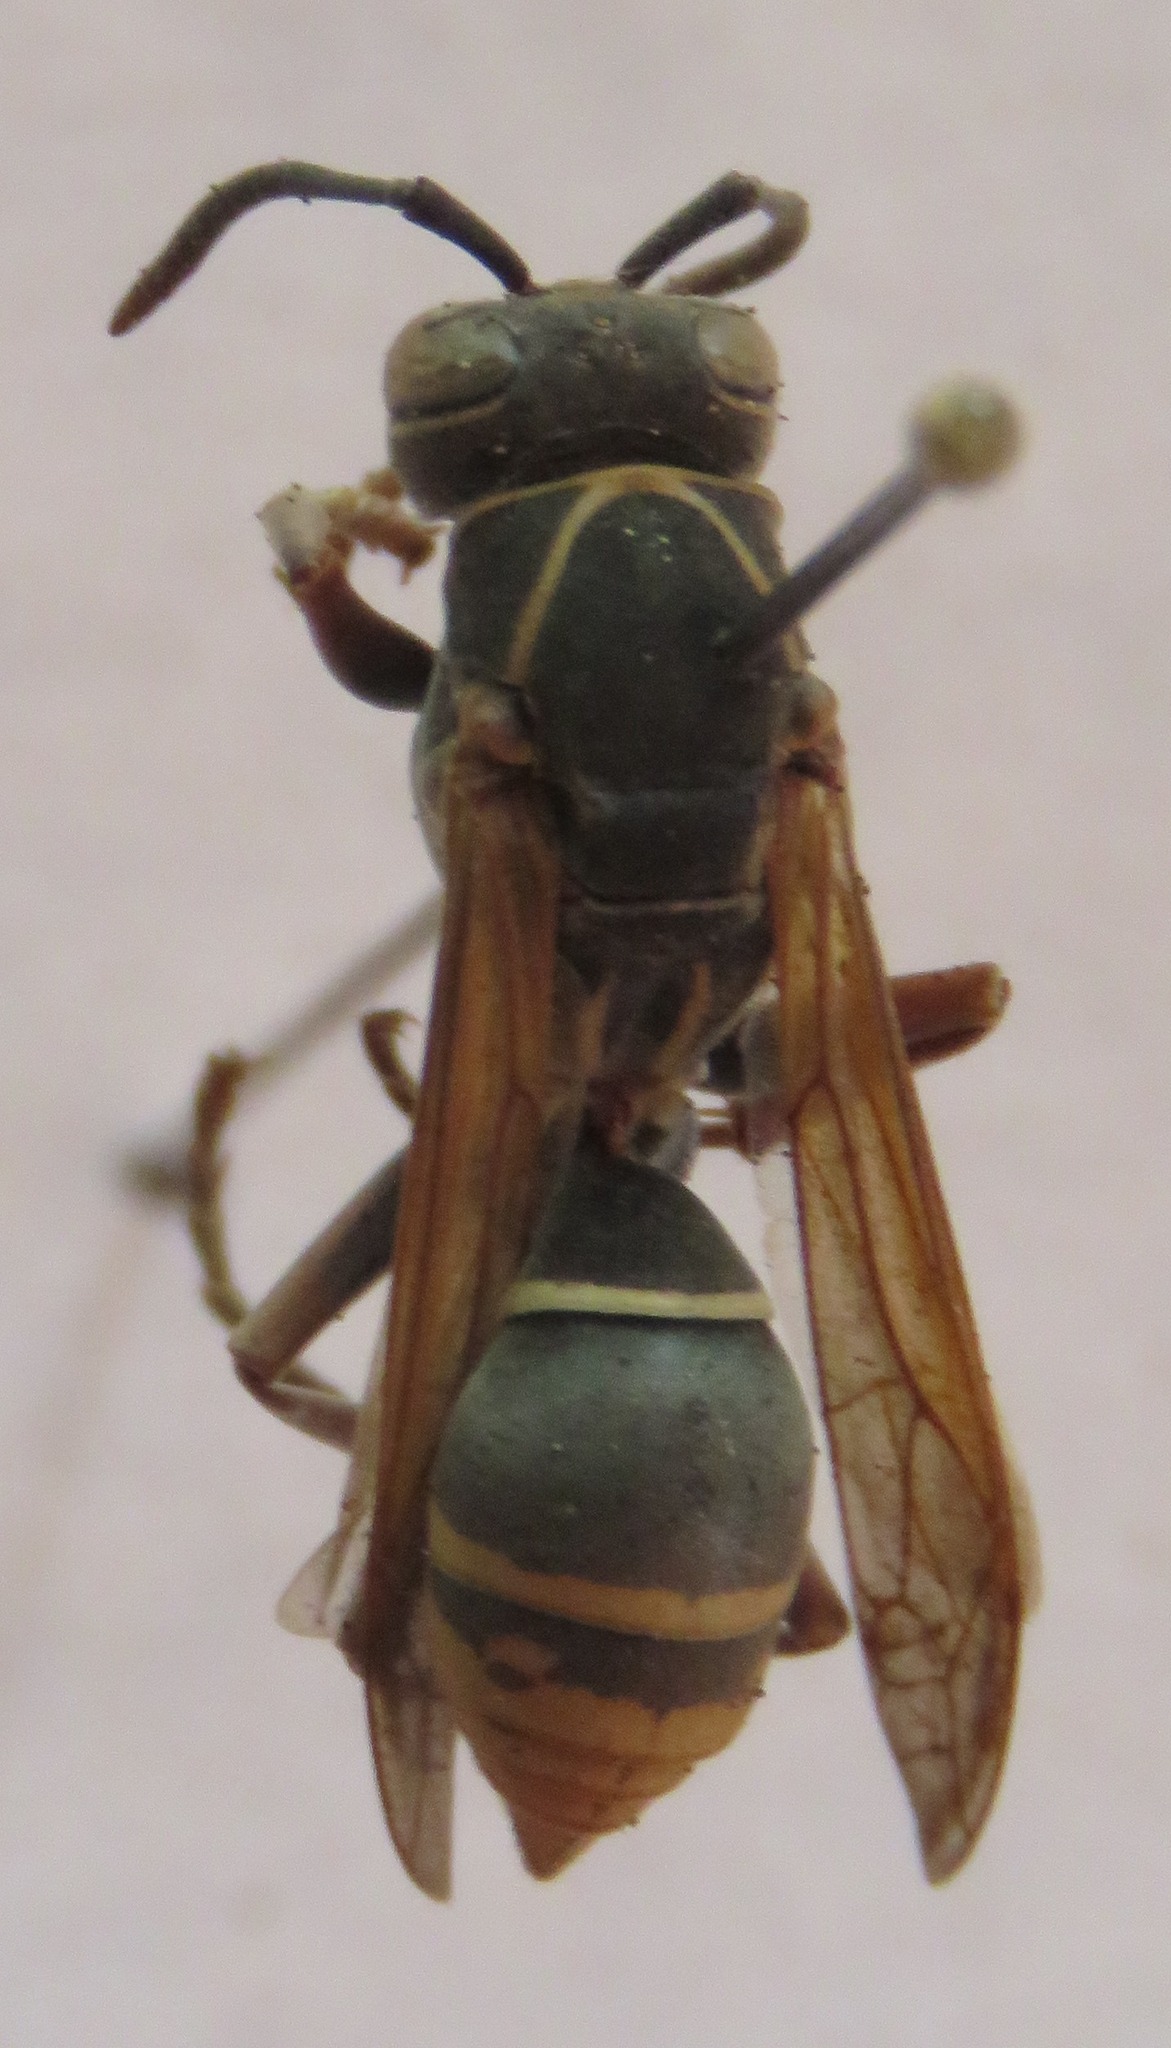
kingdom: Animalia
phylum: Arthropoda
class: Insecta
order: Hymenoptera
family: Eumenidae
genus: Polistes
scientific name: Polistes cinerascens
